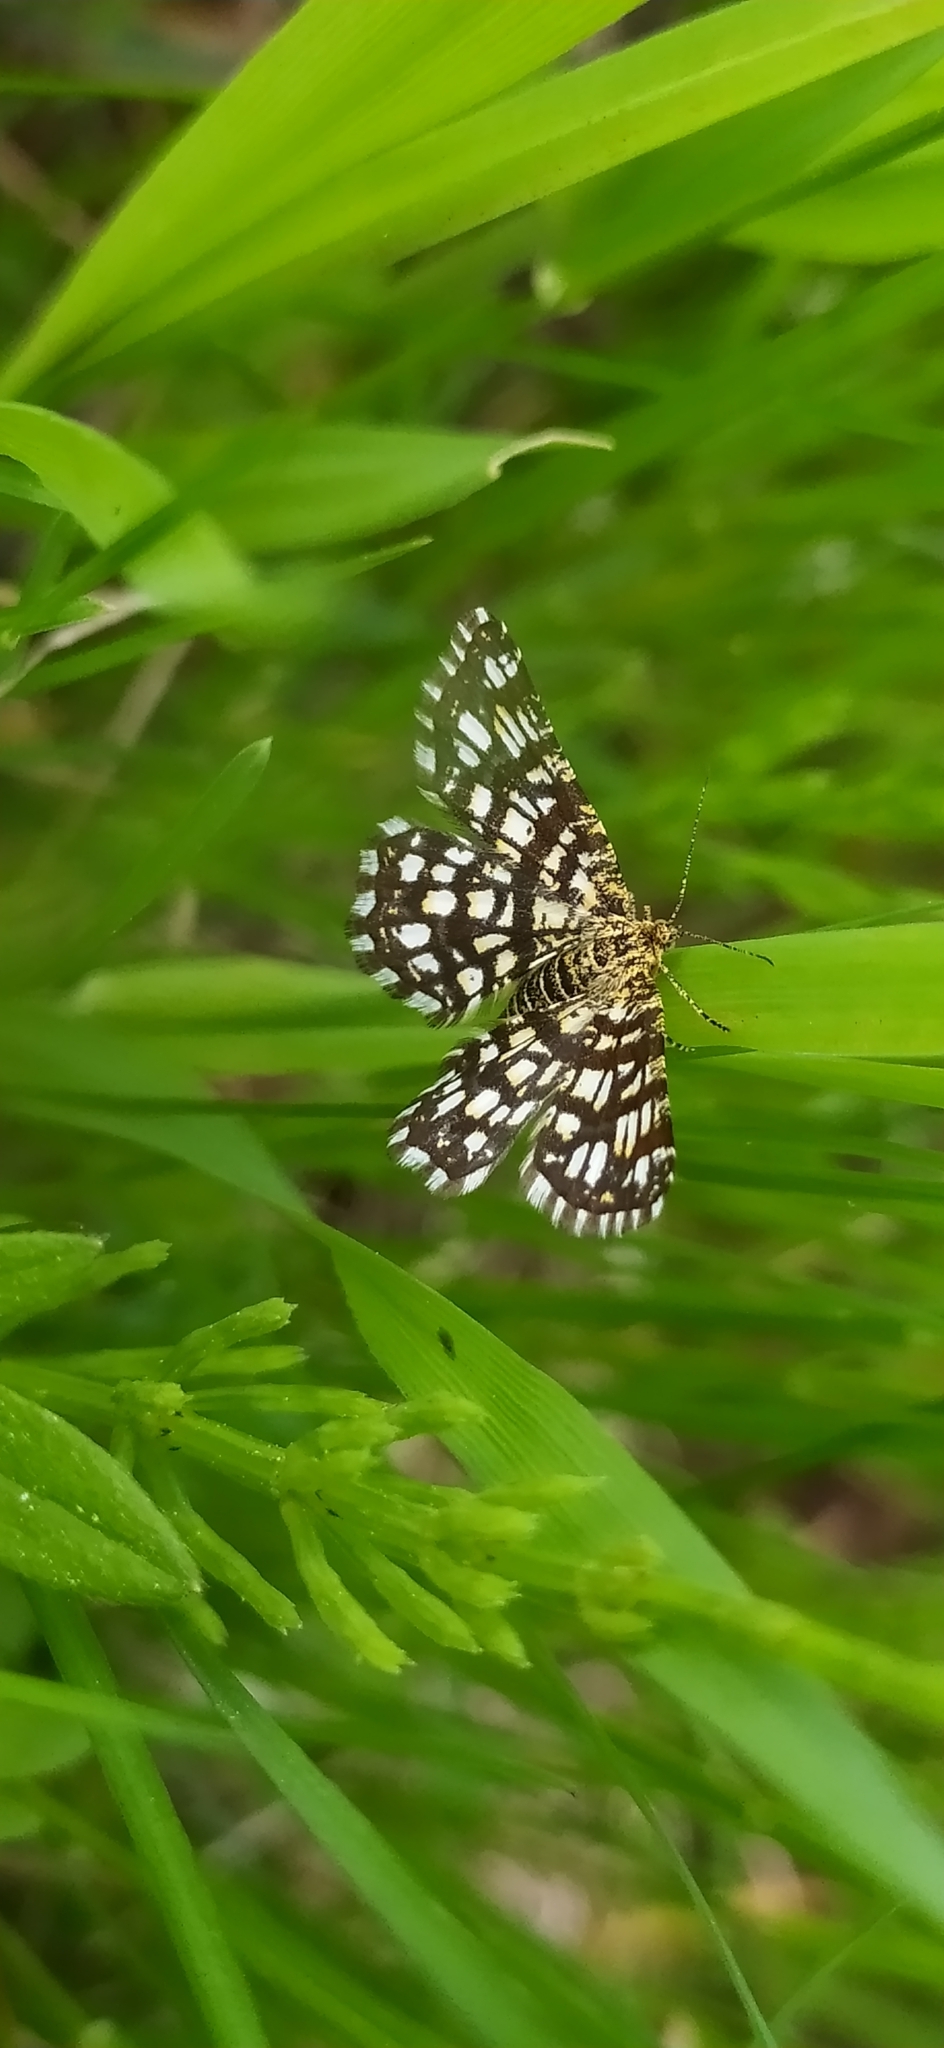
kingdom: Animalia
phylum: Arthropoda
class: Insecta
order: Lepidoptera
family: Geometridae
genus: Chiasmia
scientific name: Chiasmia clathrata
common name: Latticed heath
